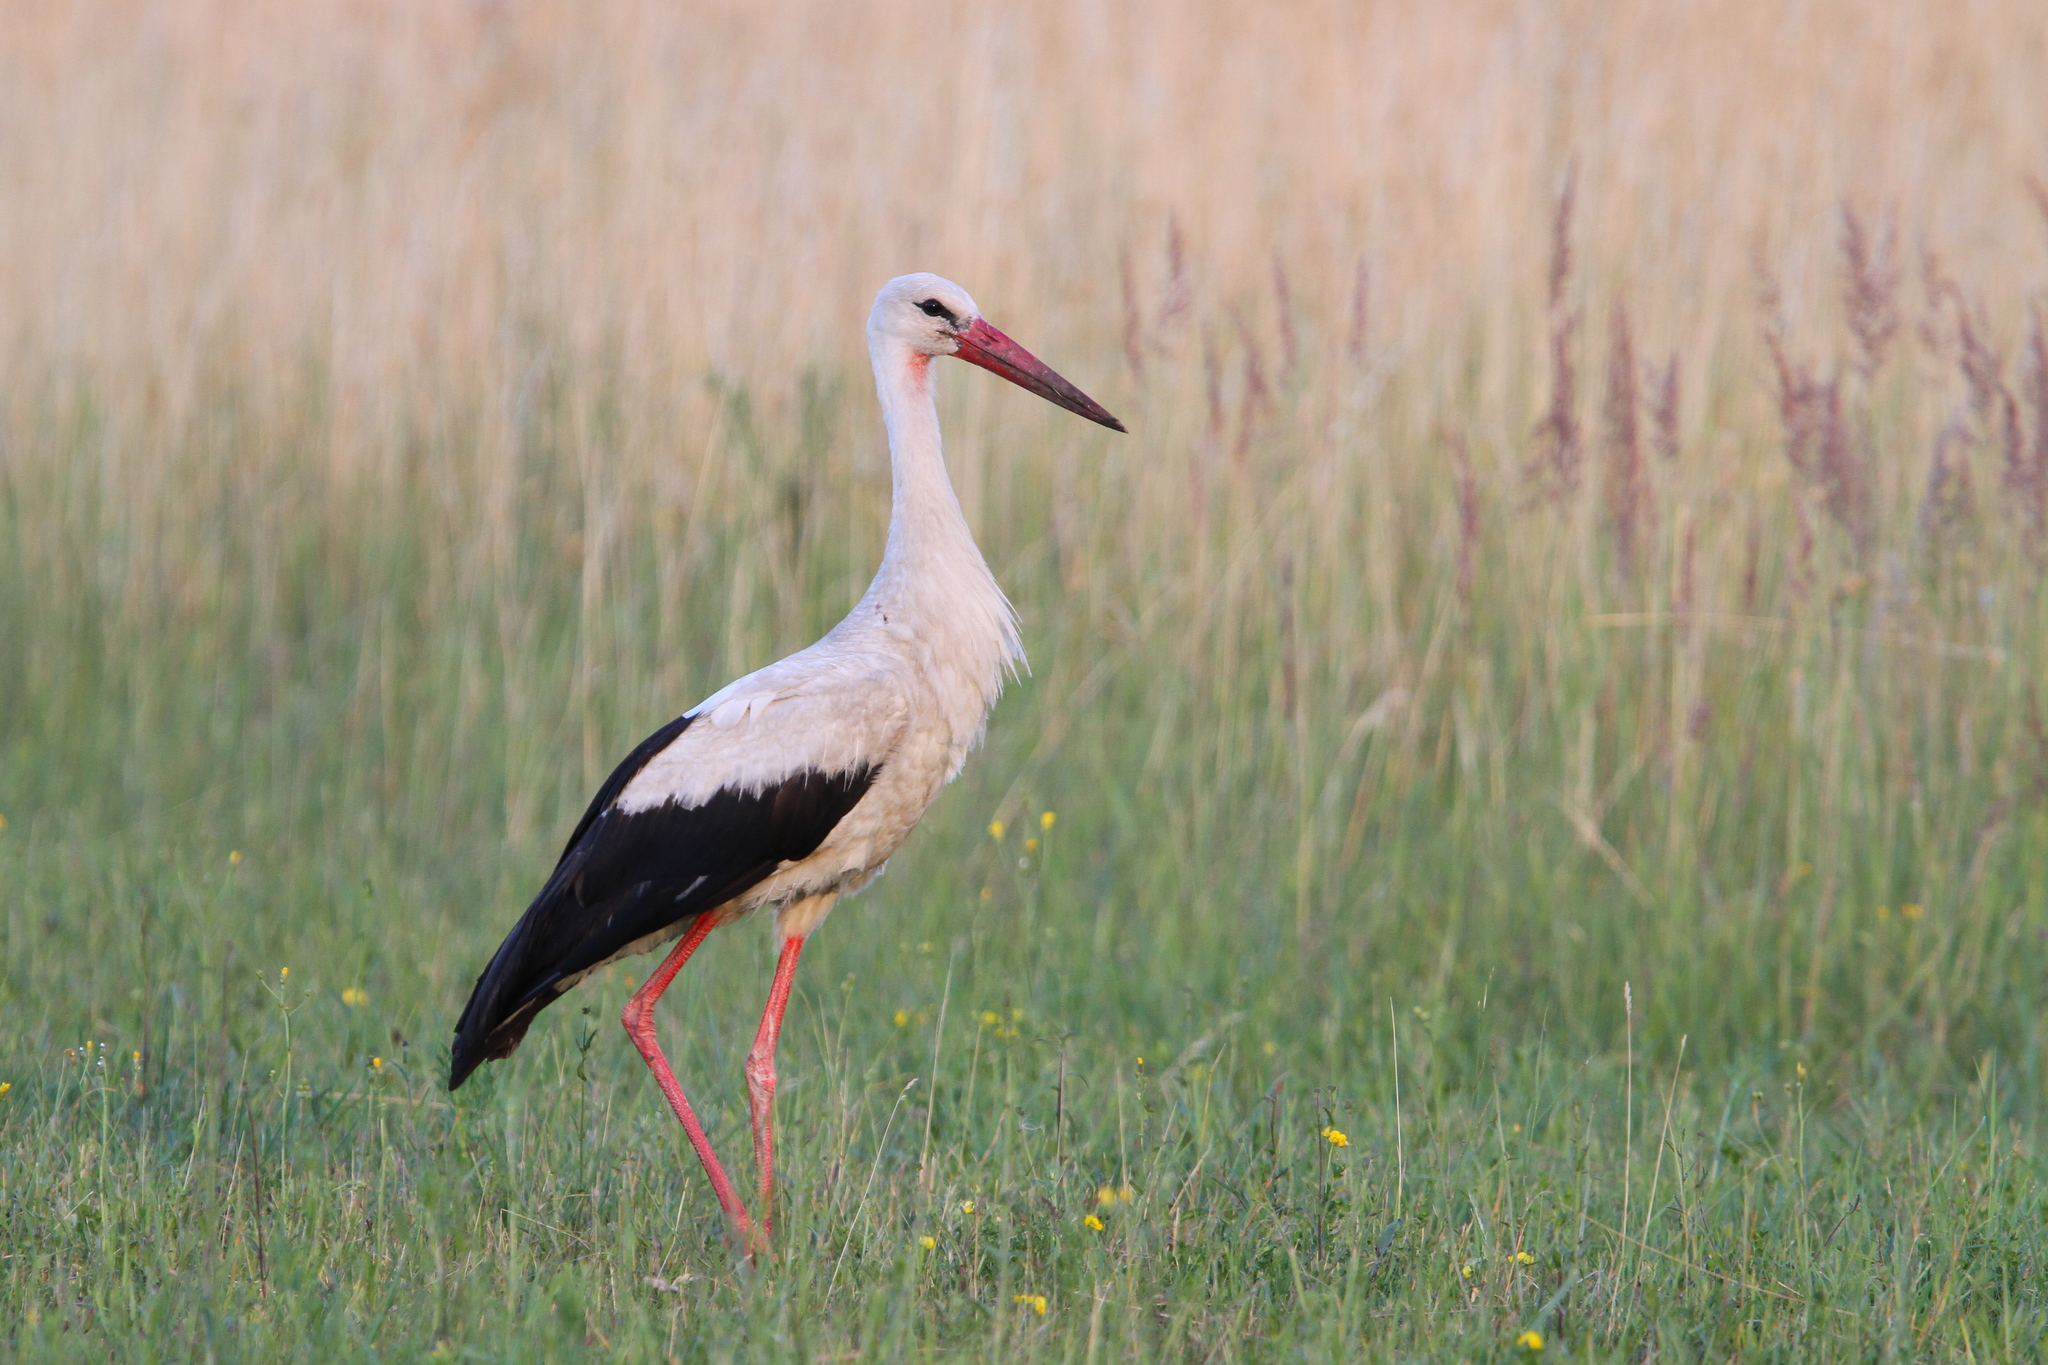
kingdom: Animalia
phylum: Chordata
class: Aves
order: Ciconiiformes
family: Ciconiidae
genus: Ciconia
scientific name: Ciconia ciconia
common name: White stork
